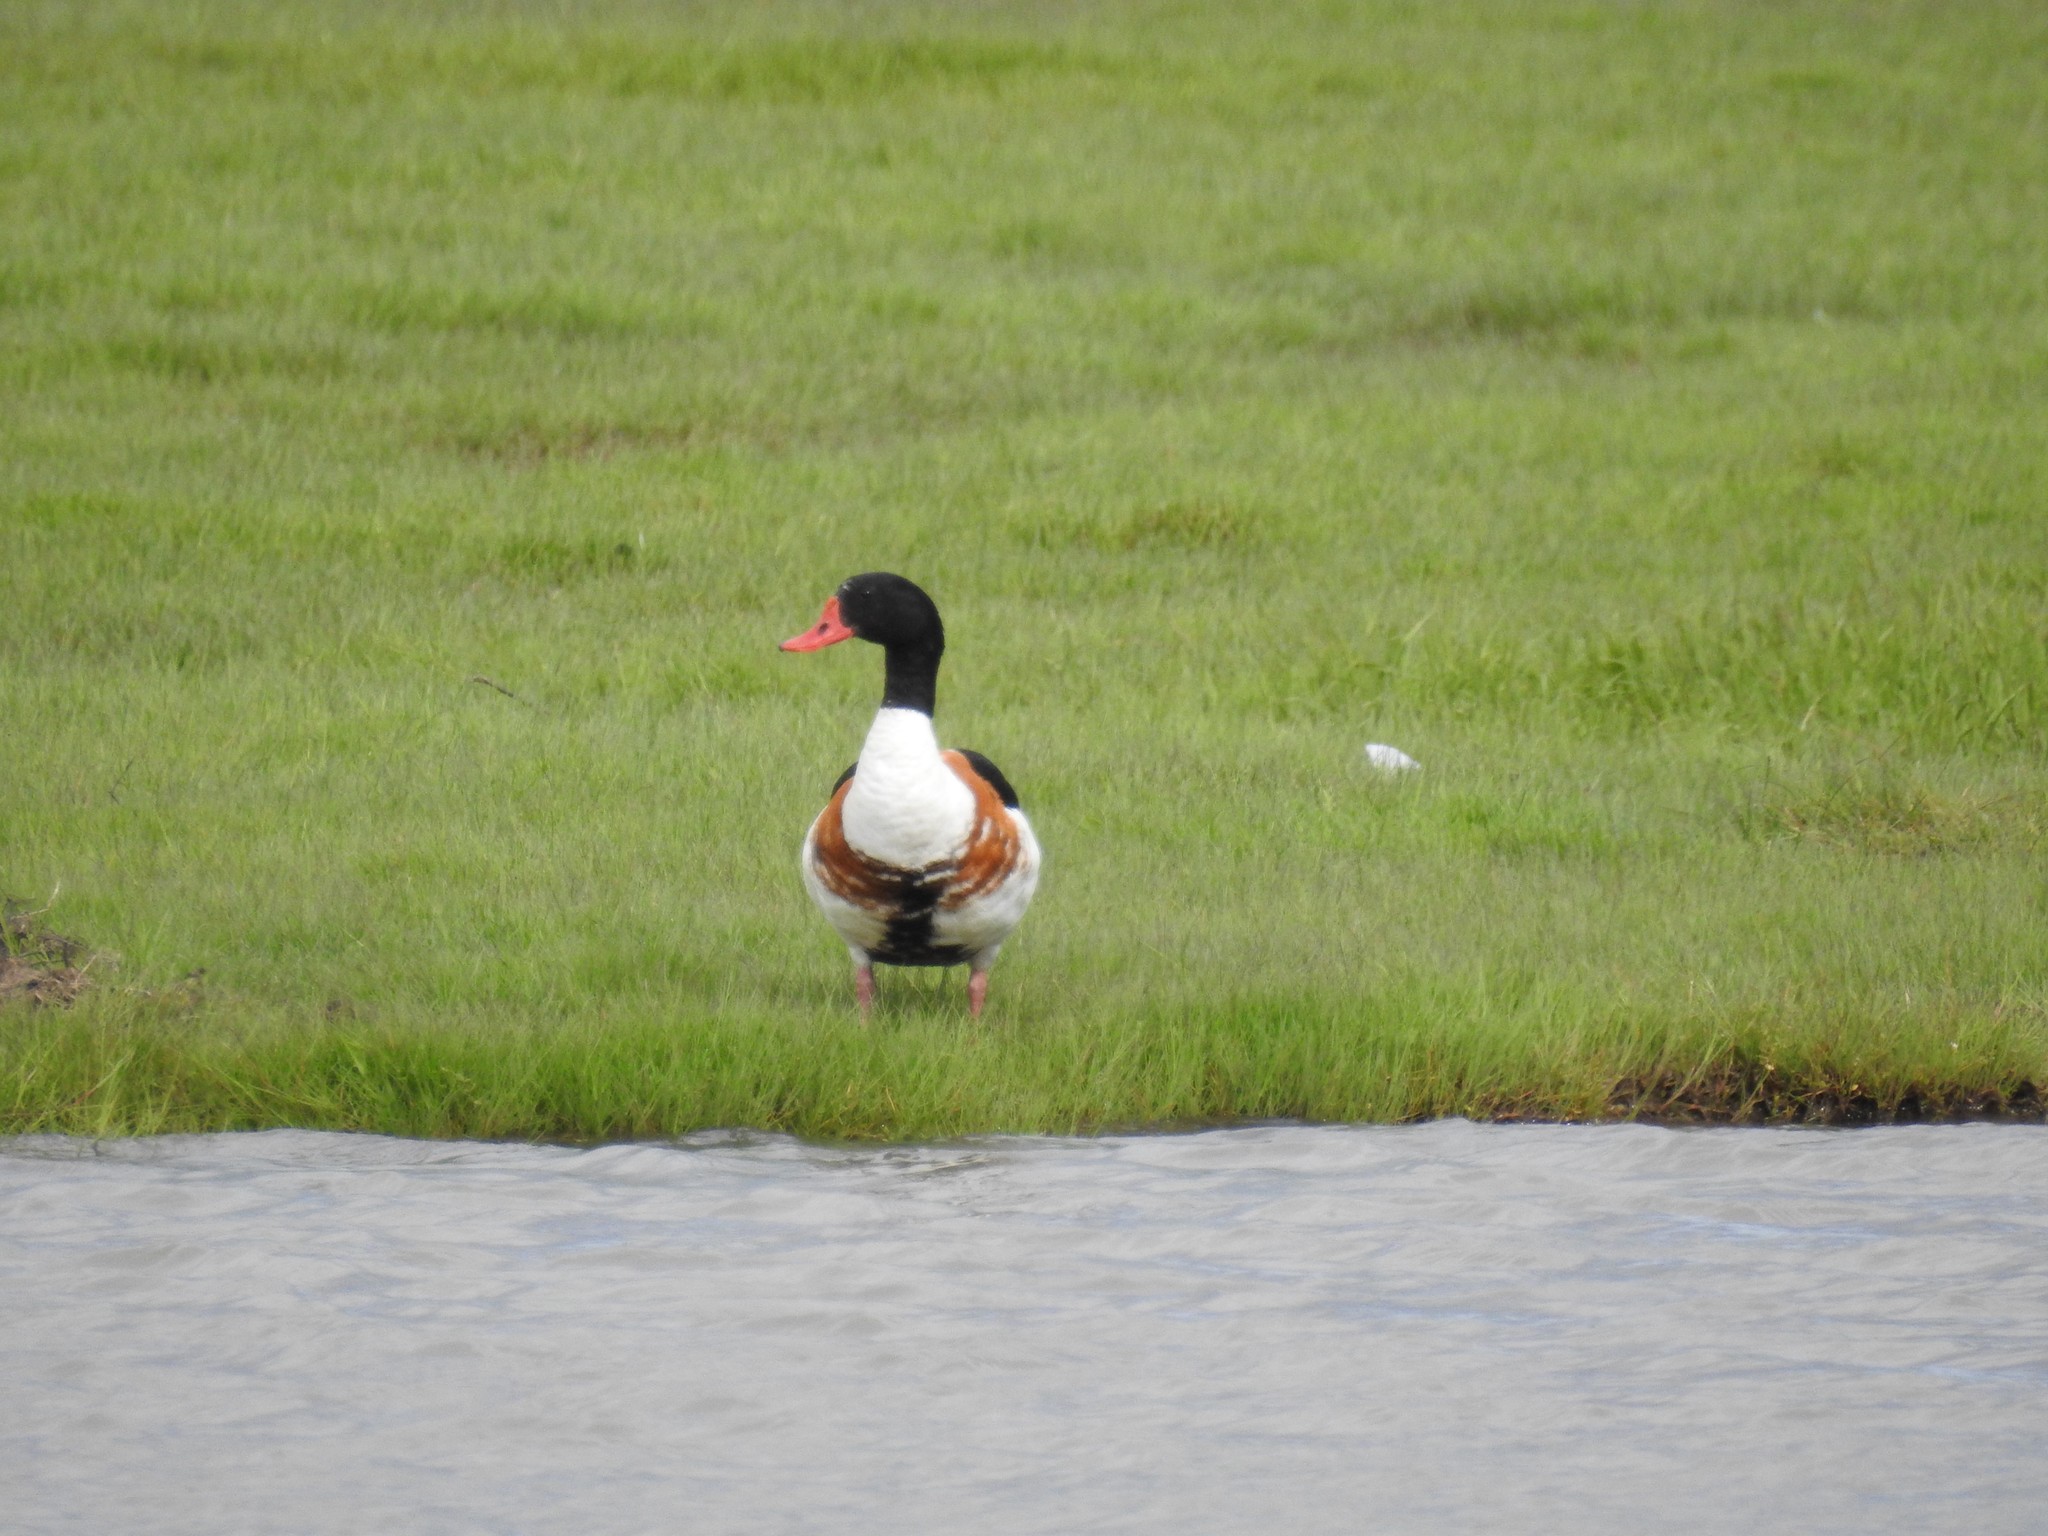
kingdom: Animalia
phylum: Chordata
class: Aves
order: Anseriformes
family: Anatidae
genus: Tadorna
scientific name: Tadorna tadorna
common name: Common shelduck
